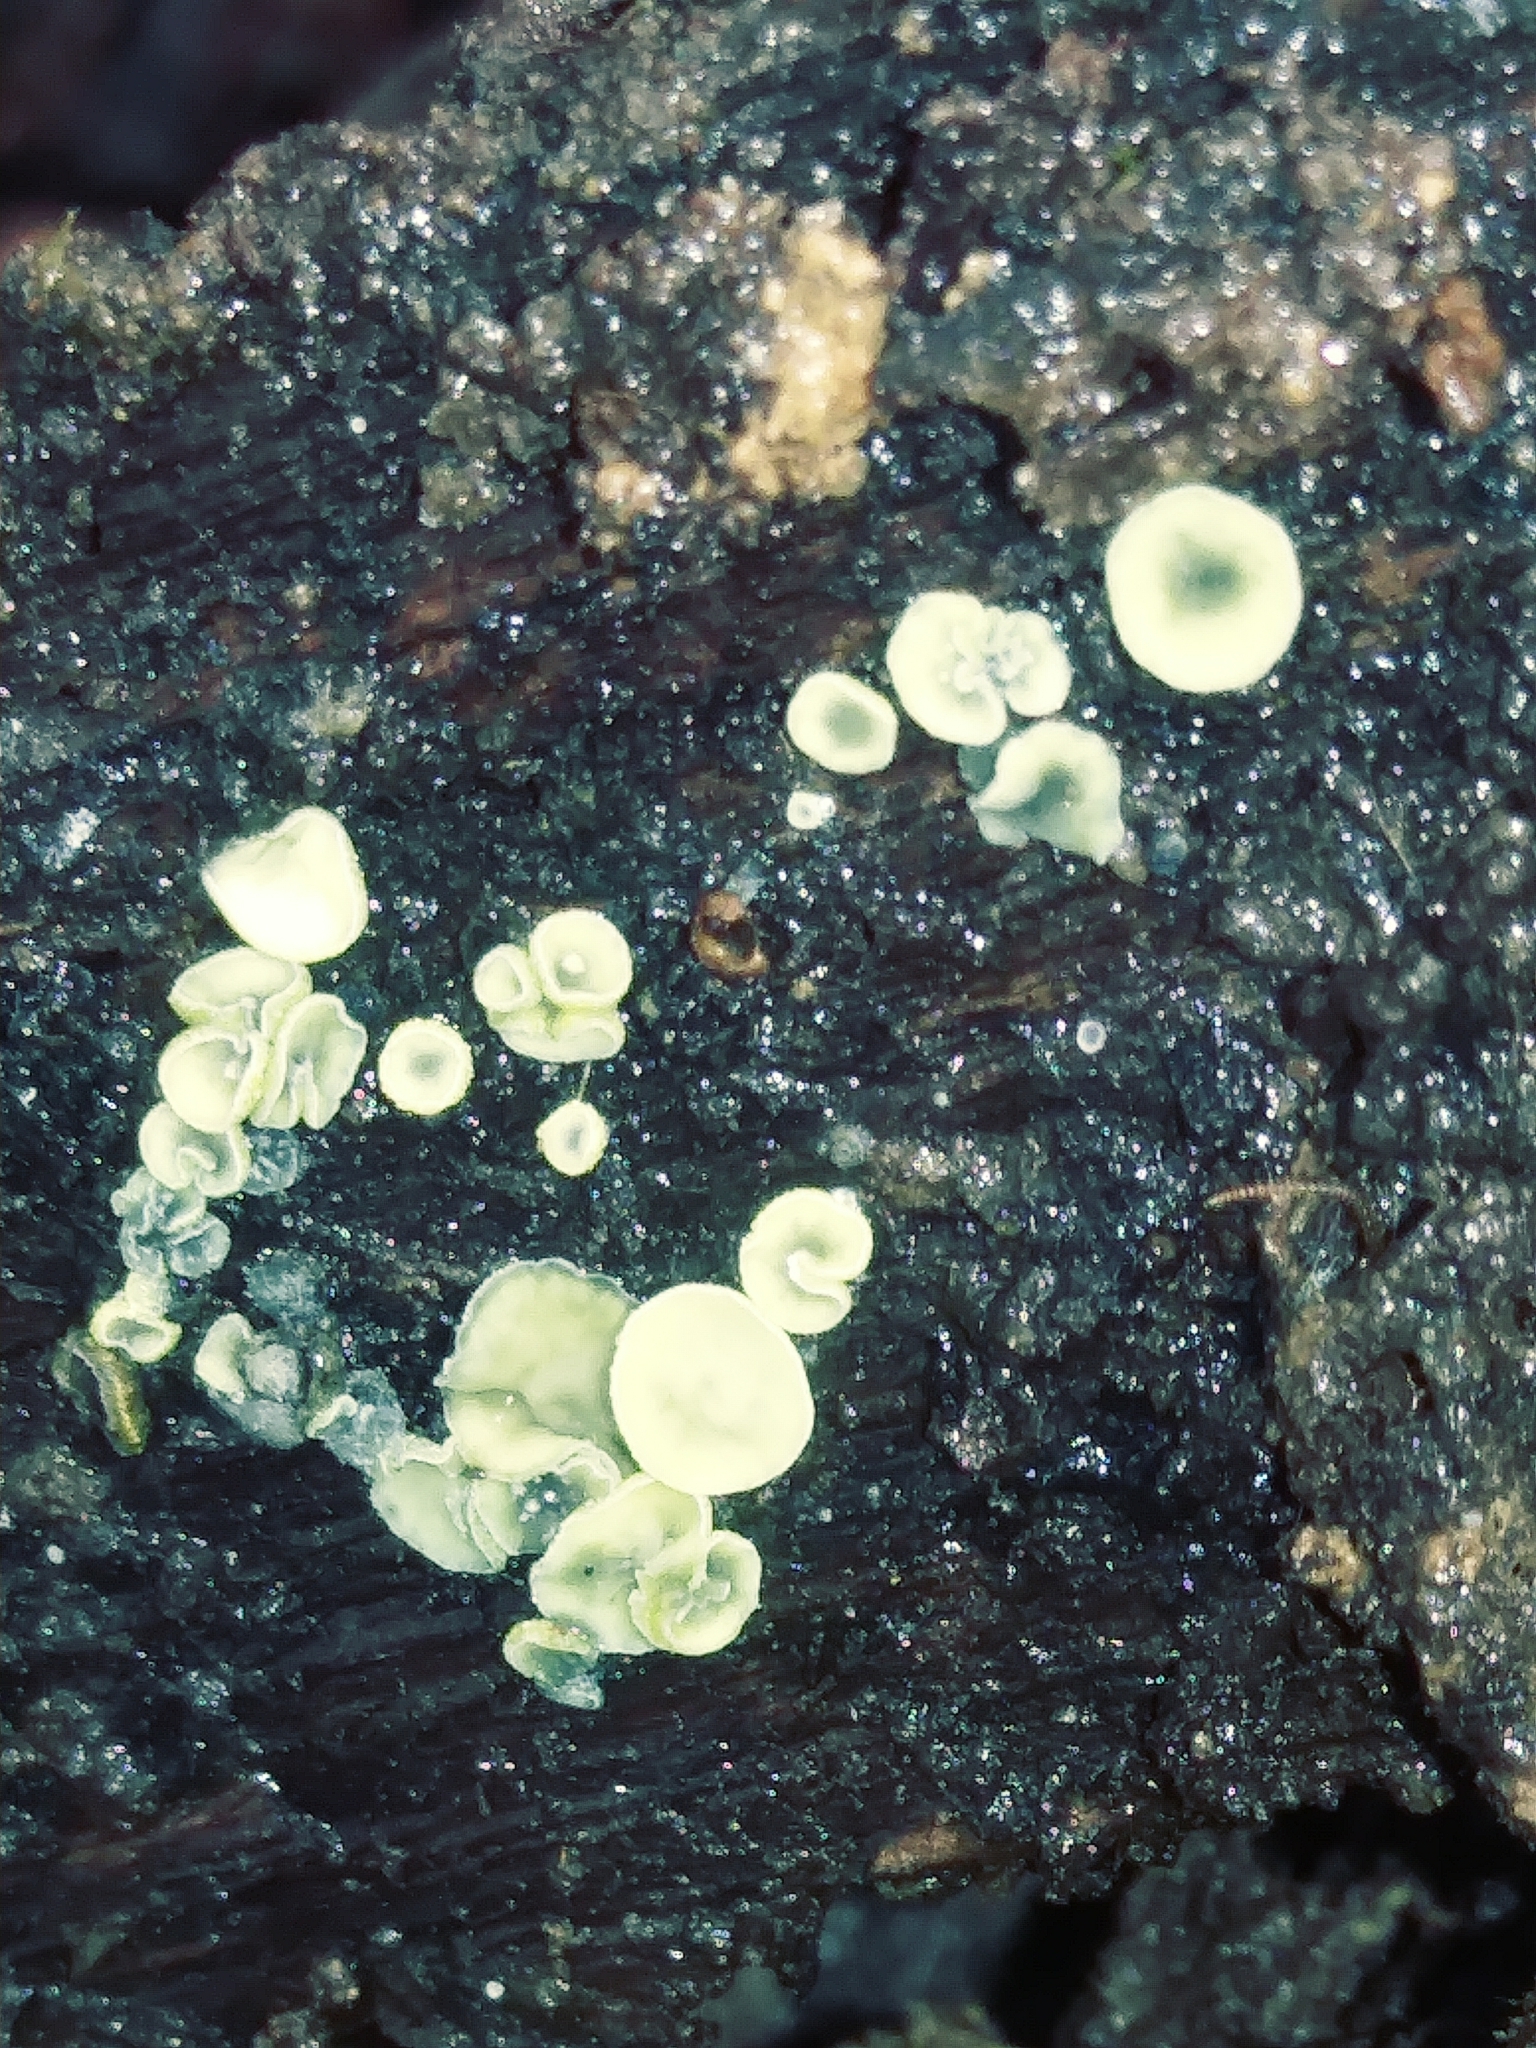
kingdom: Fungi
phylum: Ascomycota
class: Leotiomycetes
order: Helotiales
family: Chlorospleniaceae
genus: Chlorosplenium
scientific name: Chlorosplenium chlora
